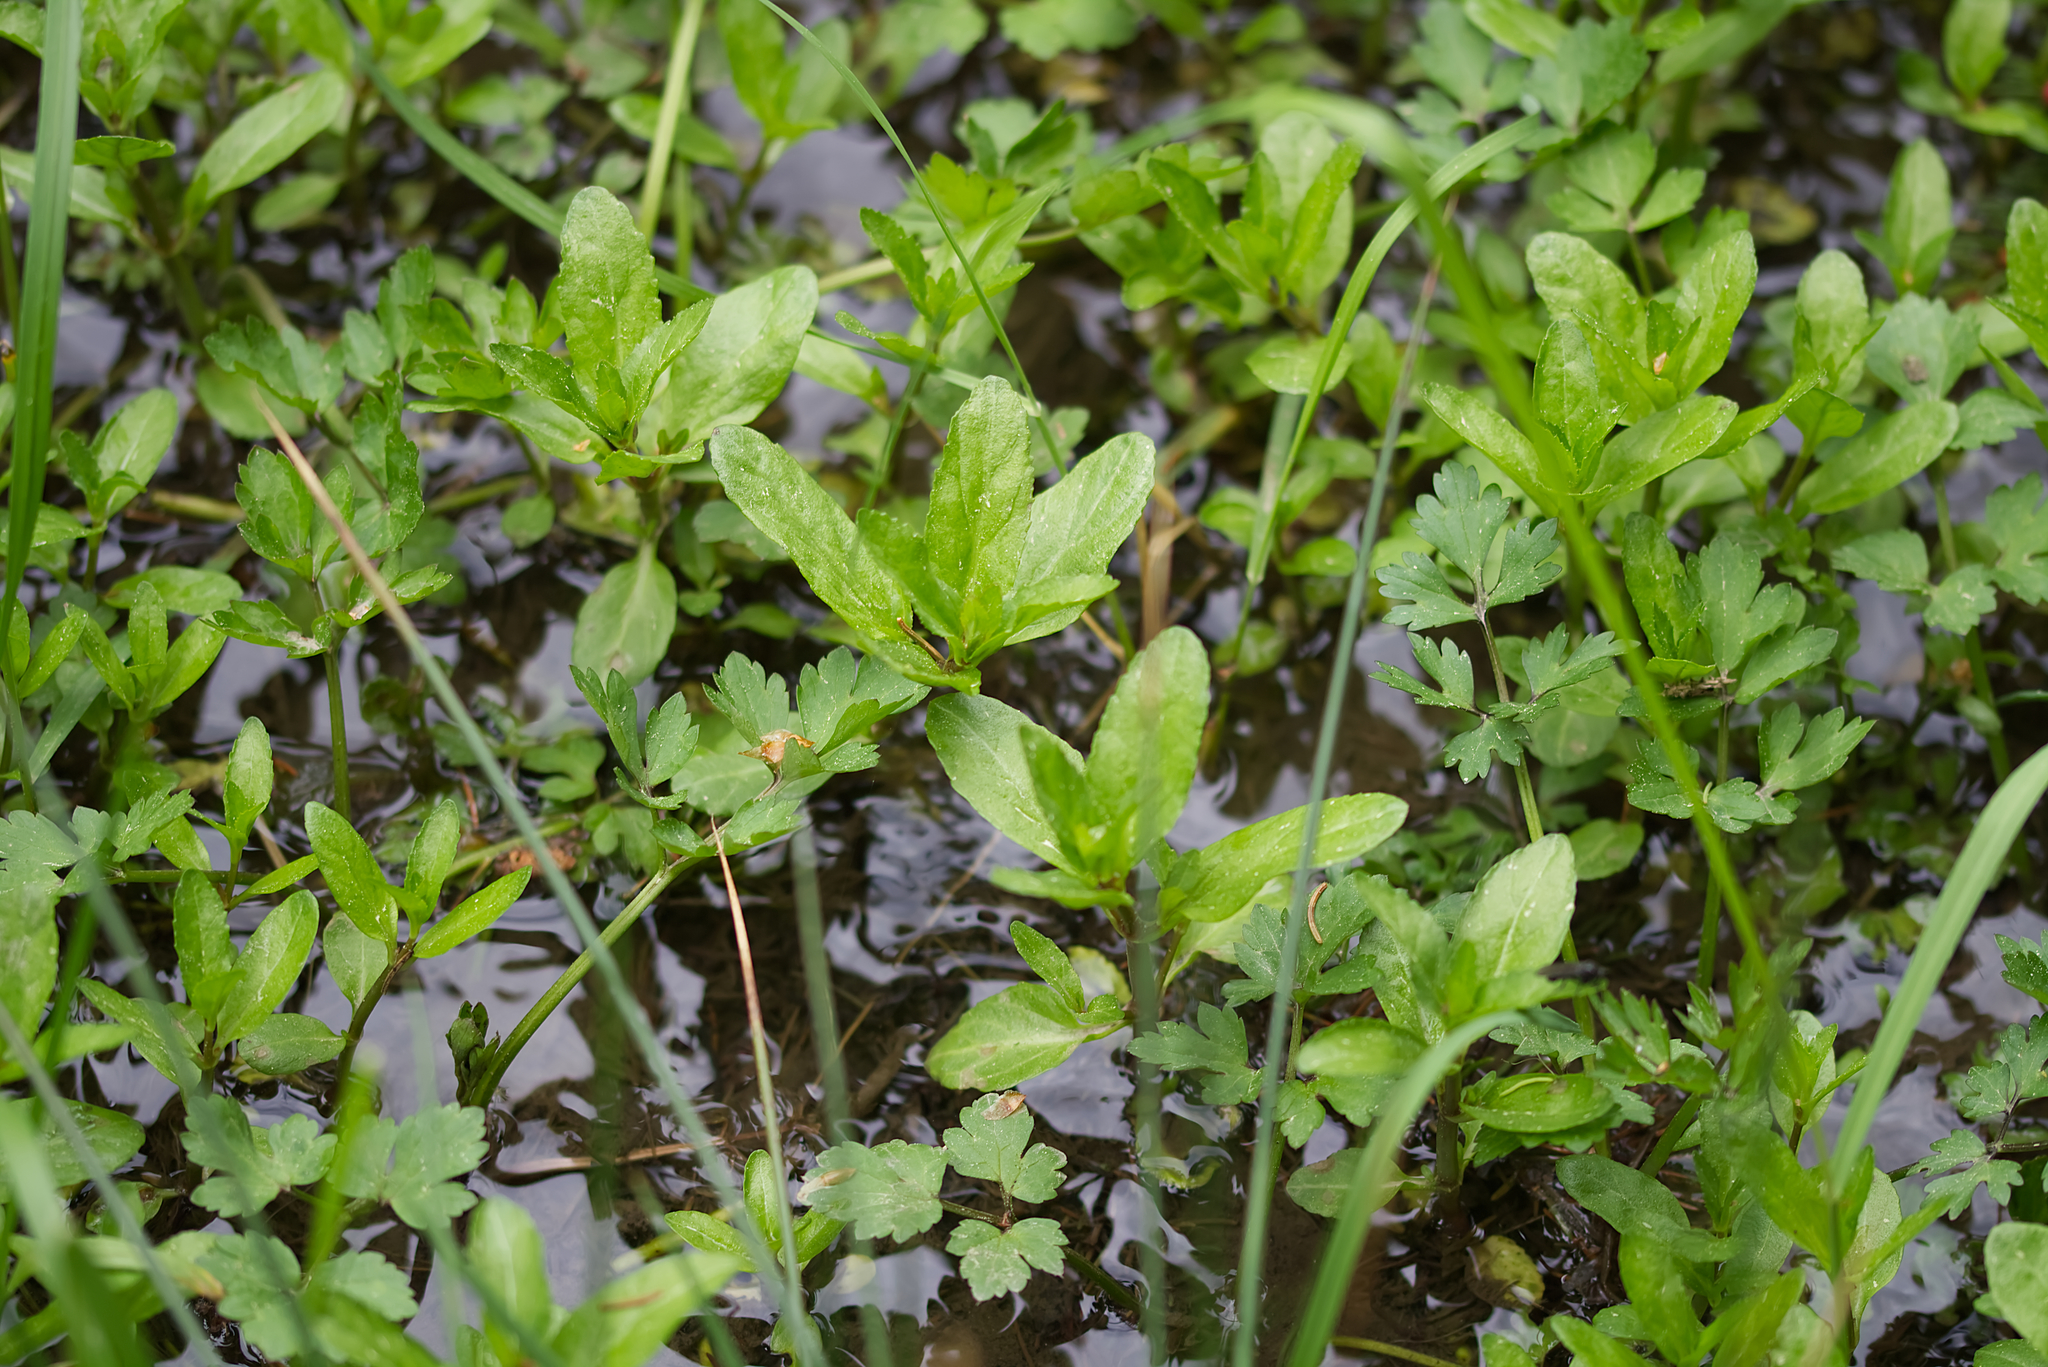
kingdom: Plantae
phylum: Tracheophyta
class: Magnoliopsida
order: Lamiales
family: Plantaginaceae
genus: Veronica
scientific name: Veronica beccabunga
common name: Brooklime
